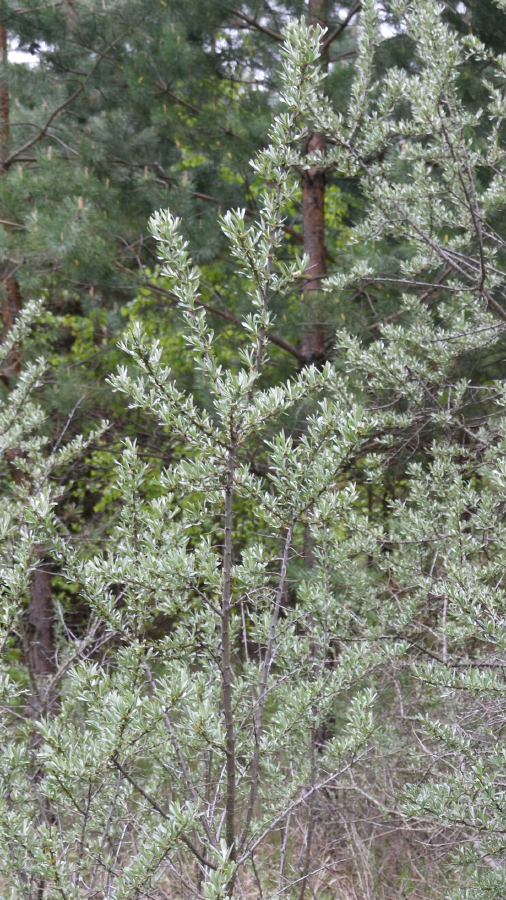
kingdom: Plantae
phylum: Tracheophyta
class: Magnoliopsida
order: Rosales
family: Elaeagnaceae
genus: Hippophae
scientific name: Hippophae rhamnoides
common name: Sea-buckthorn
